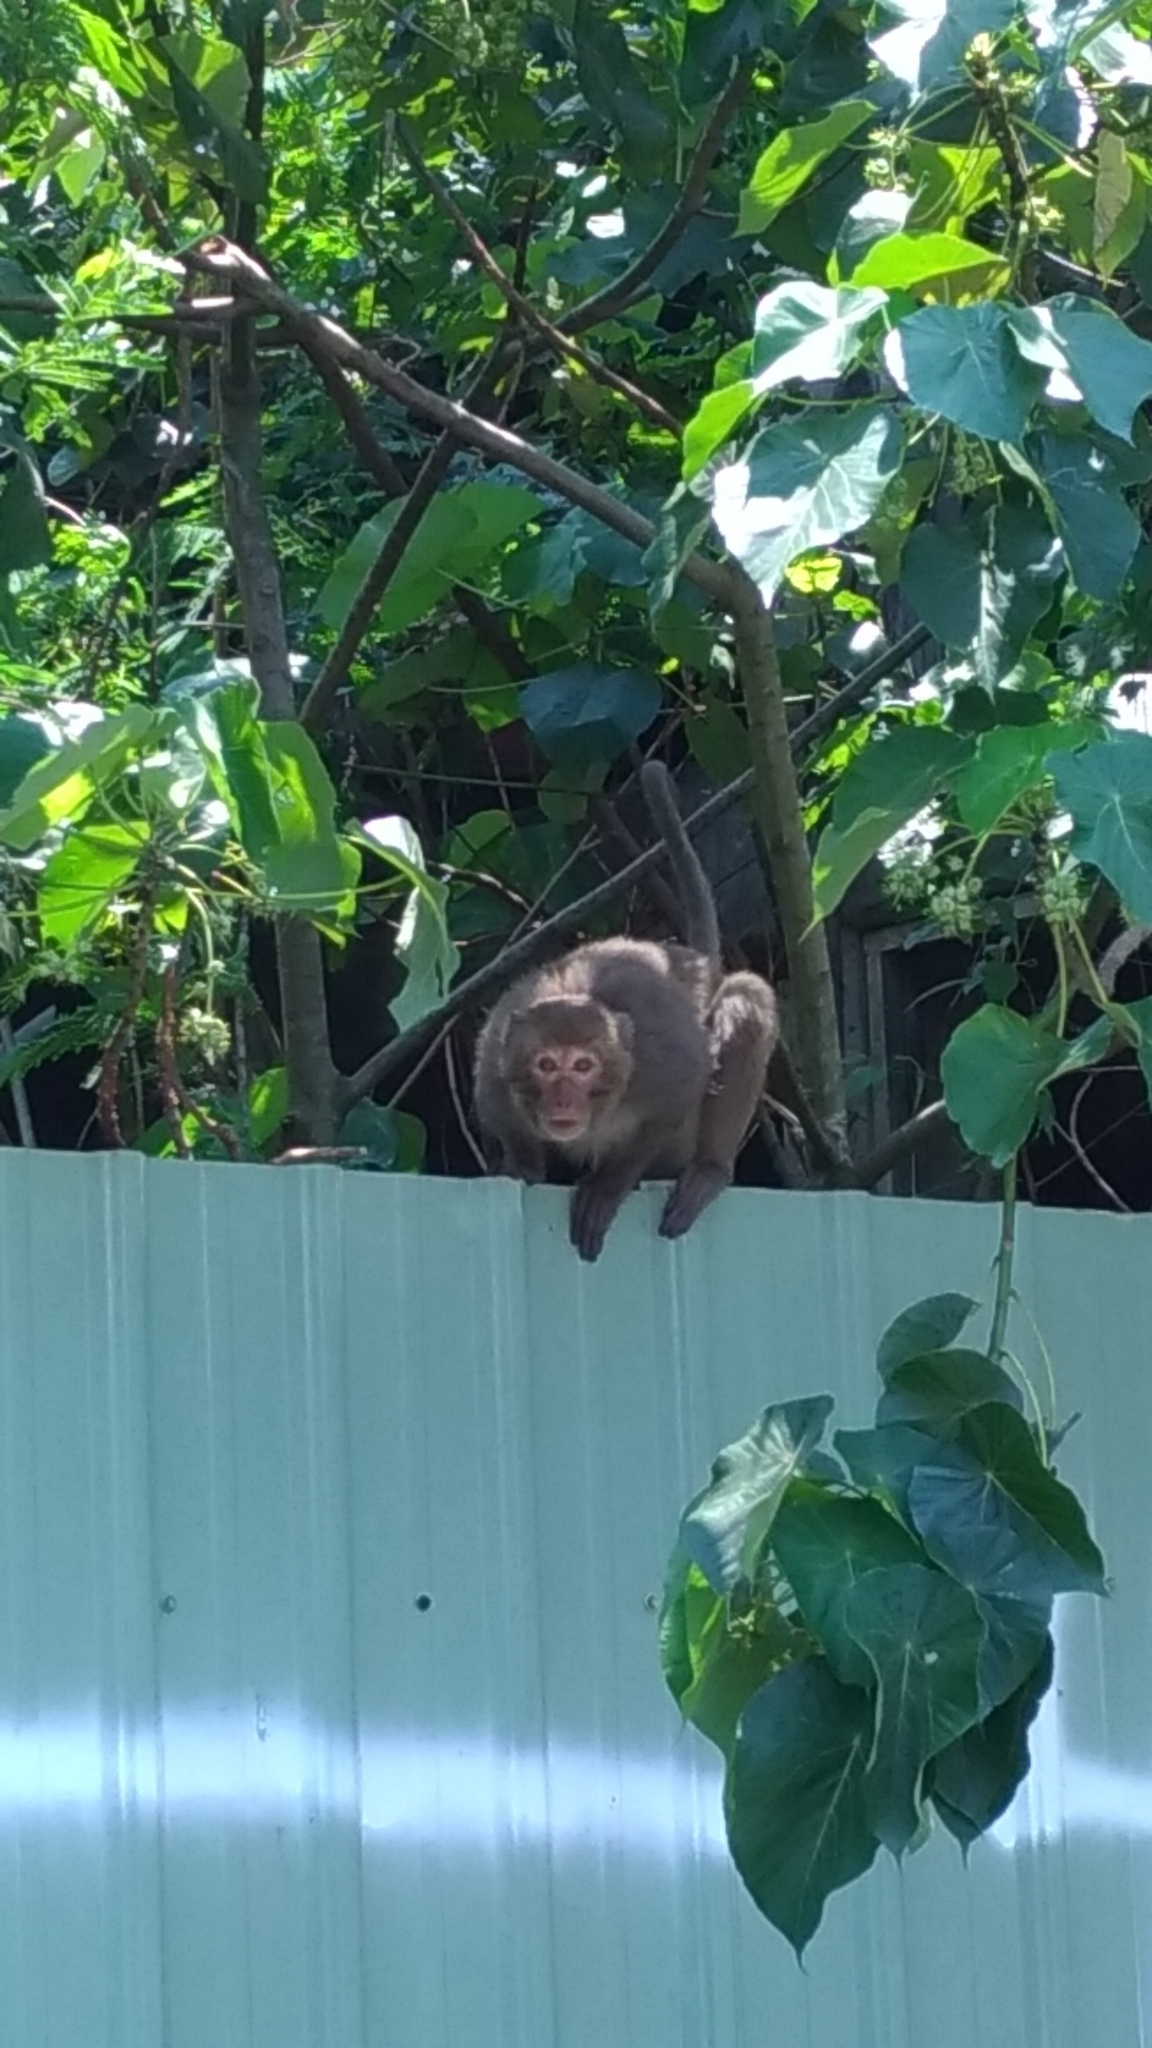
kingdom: Animalia
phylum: Chordata
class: Mammalia
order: Primates
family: Cercopithecidae
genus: Macaca
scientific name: Macaca cyclopis
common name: Formosan rock macaque
